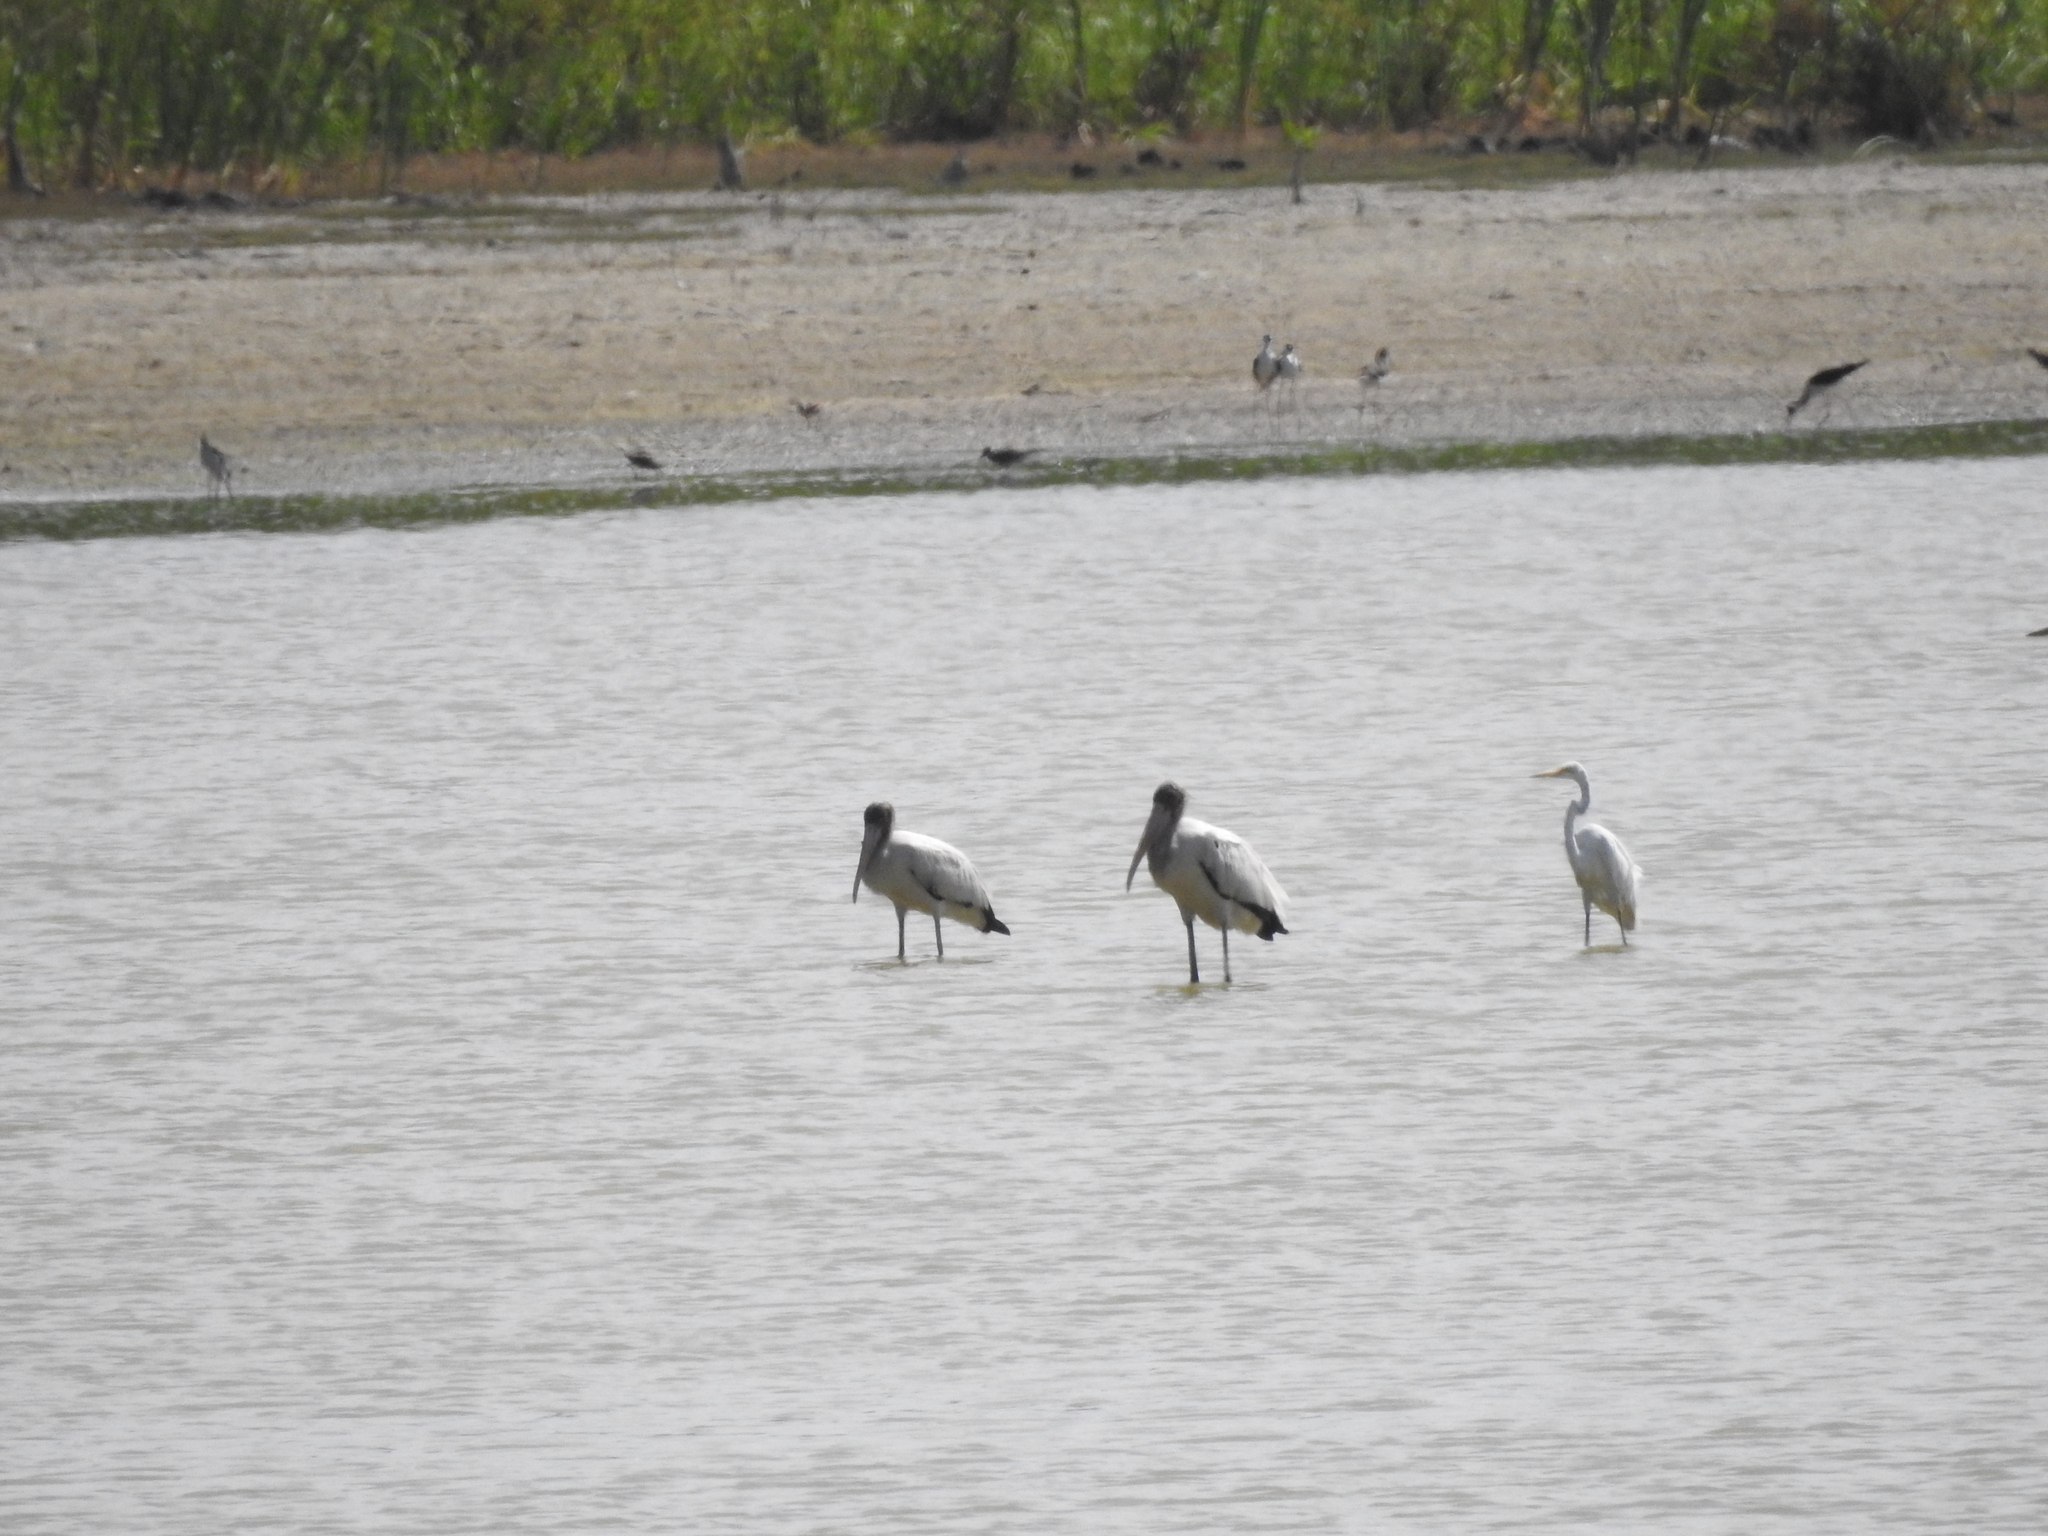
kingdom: Animalia
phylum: Chordata
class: Aves
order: Ciconiiformes
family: Ciconiidae
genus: Mycteria
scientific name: Mycteria americana
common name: Wood stork
